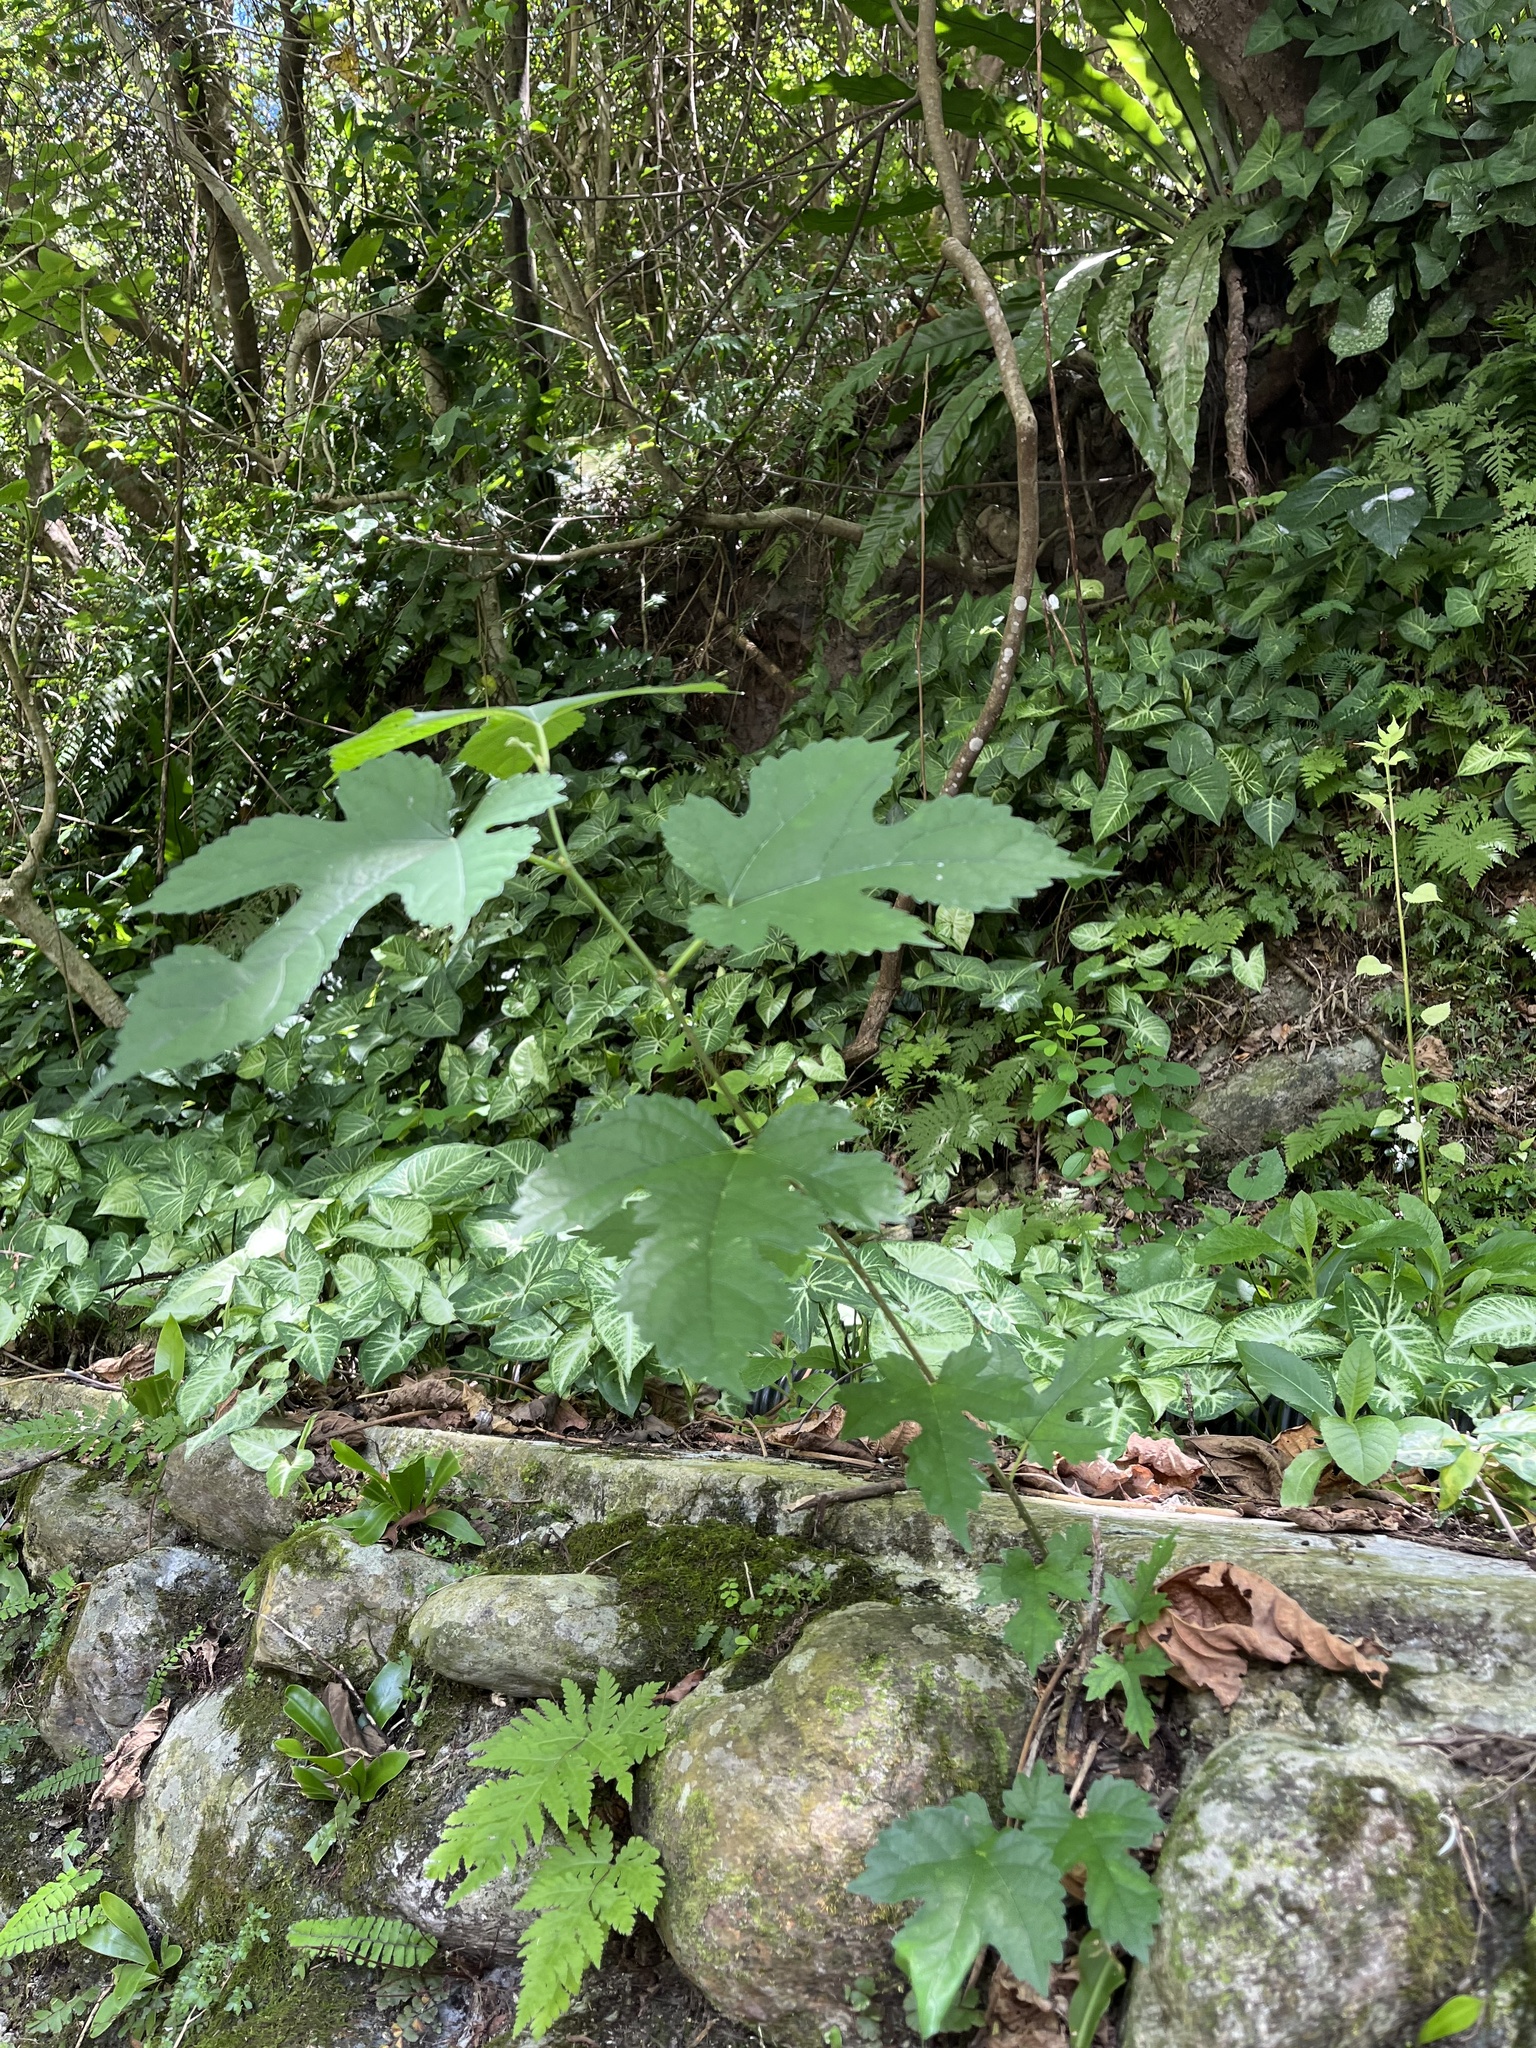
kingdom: Plantae
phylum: Tracheophyta
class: Magnoliopsida
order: Rosales
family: Moraceae
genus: Morus
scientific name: Morus indica
